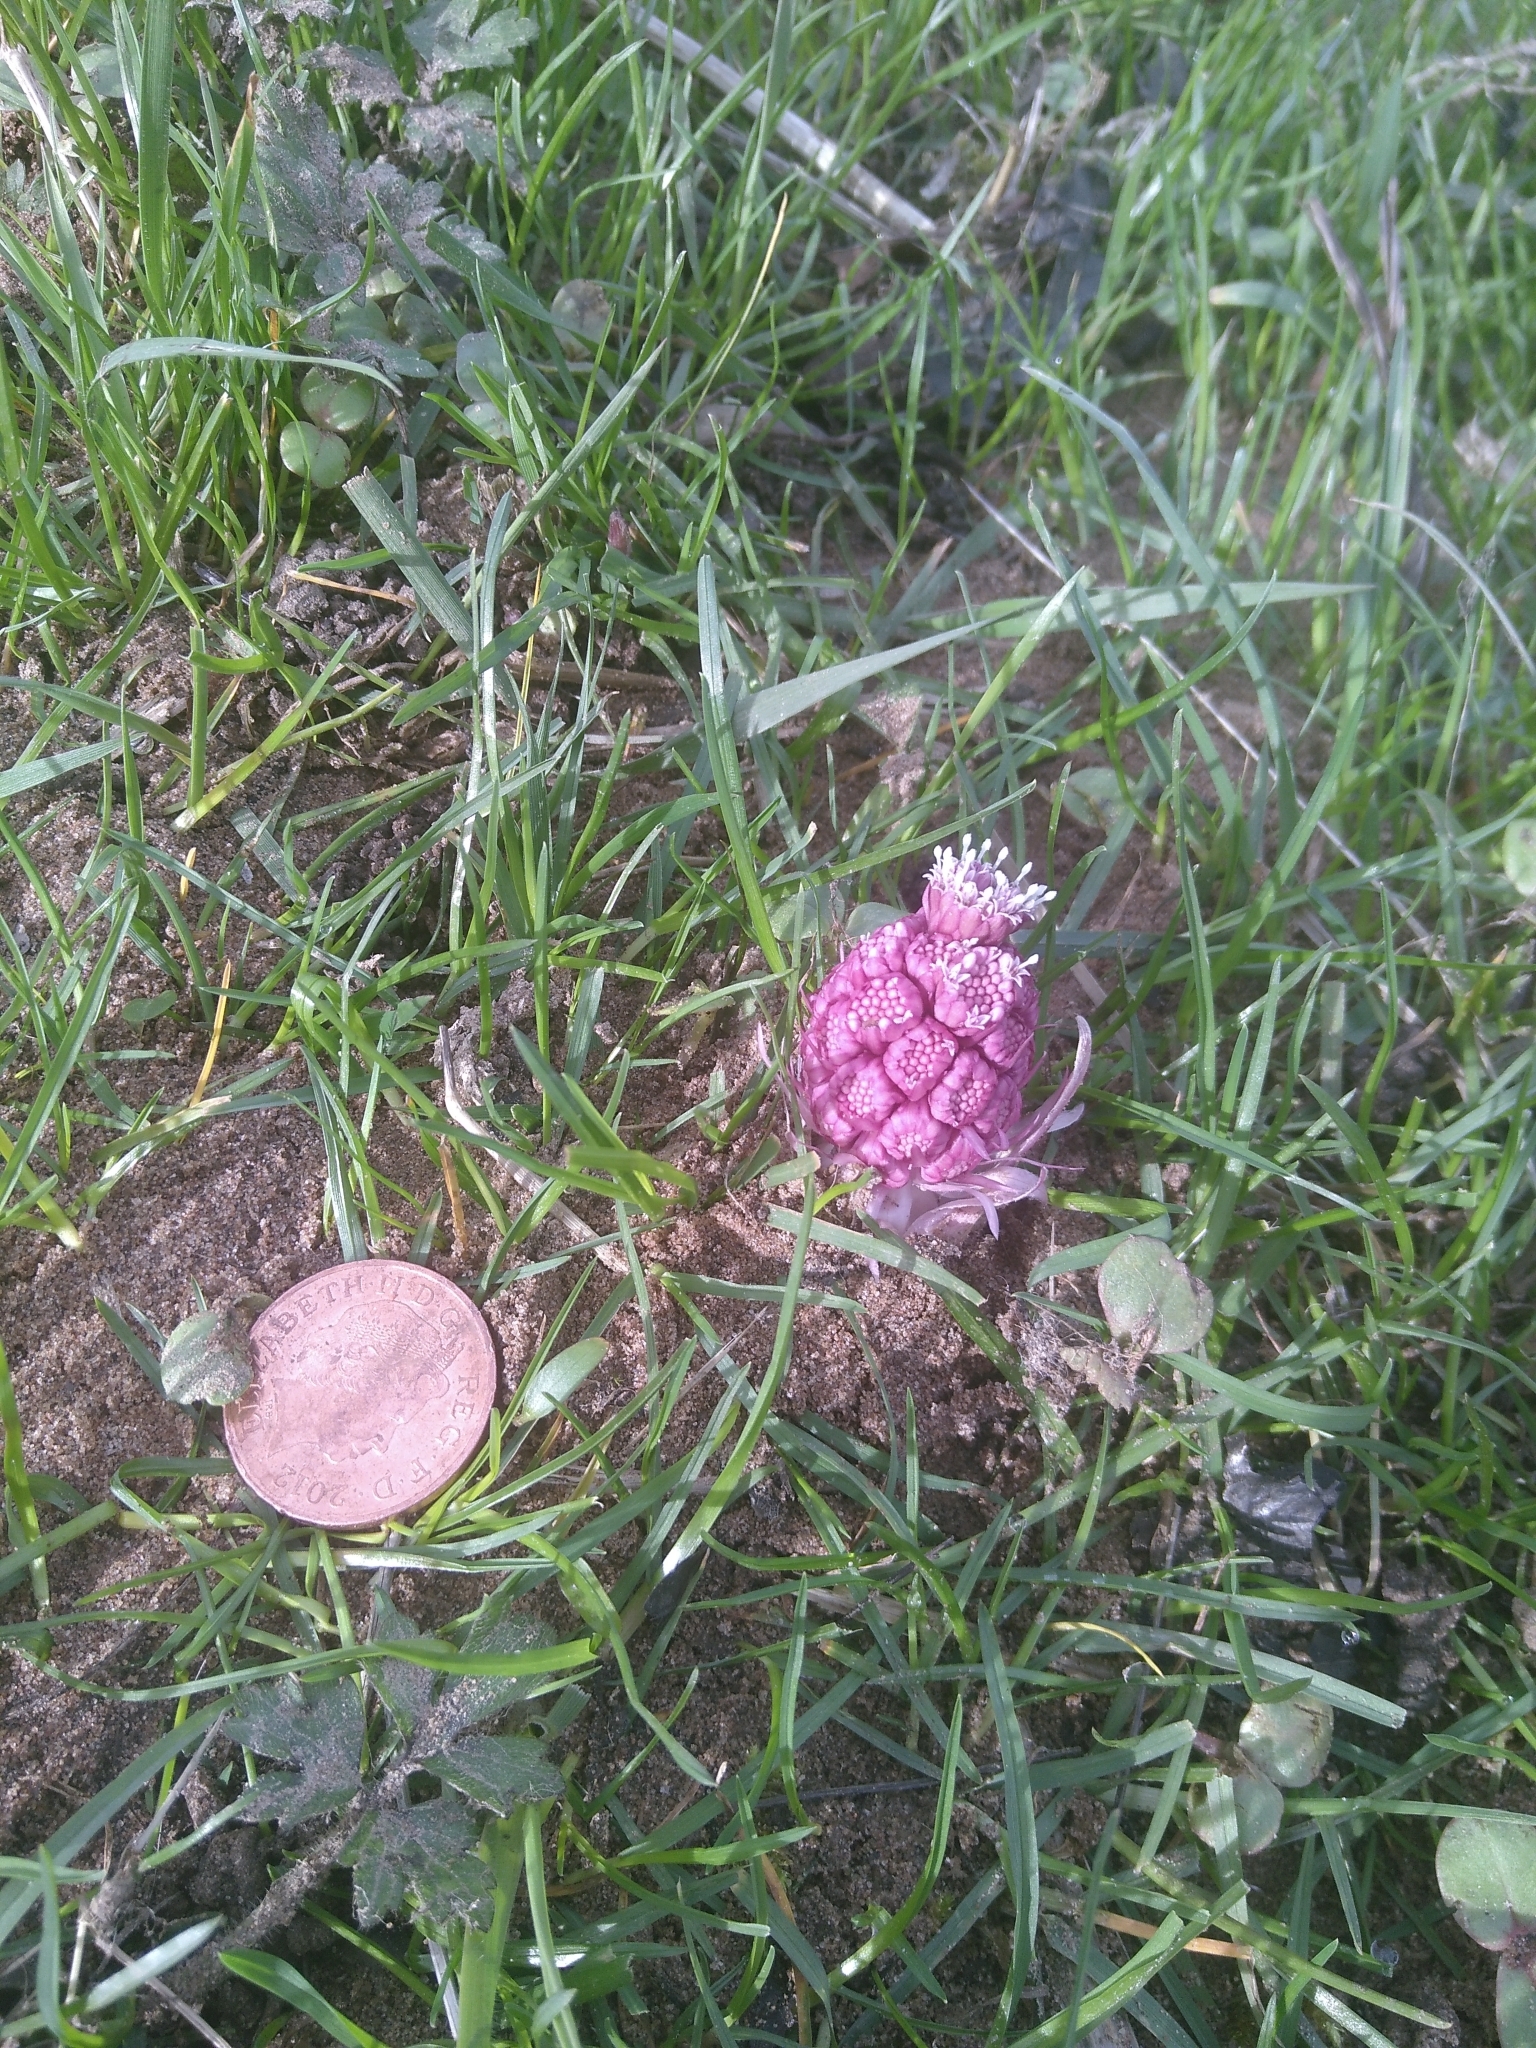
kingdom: Plantae
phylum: Tracheophyta
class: Magnoliopsida
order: Asterales
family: Asteraceae
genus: Petasites
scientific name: Petasites hybridus
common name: Butterbur
